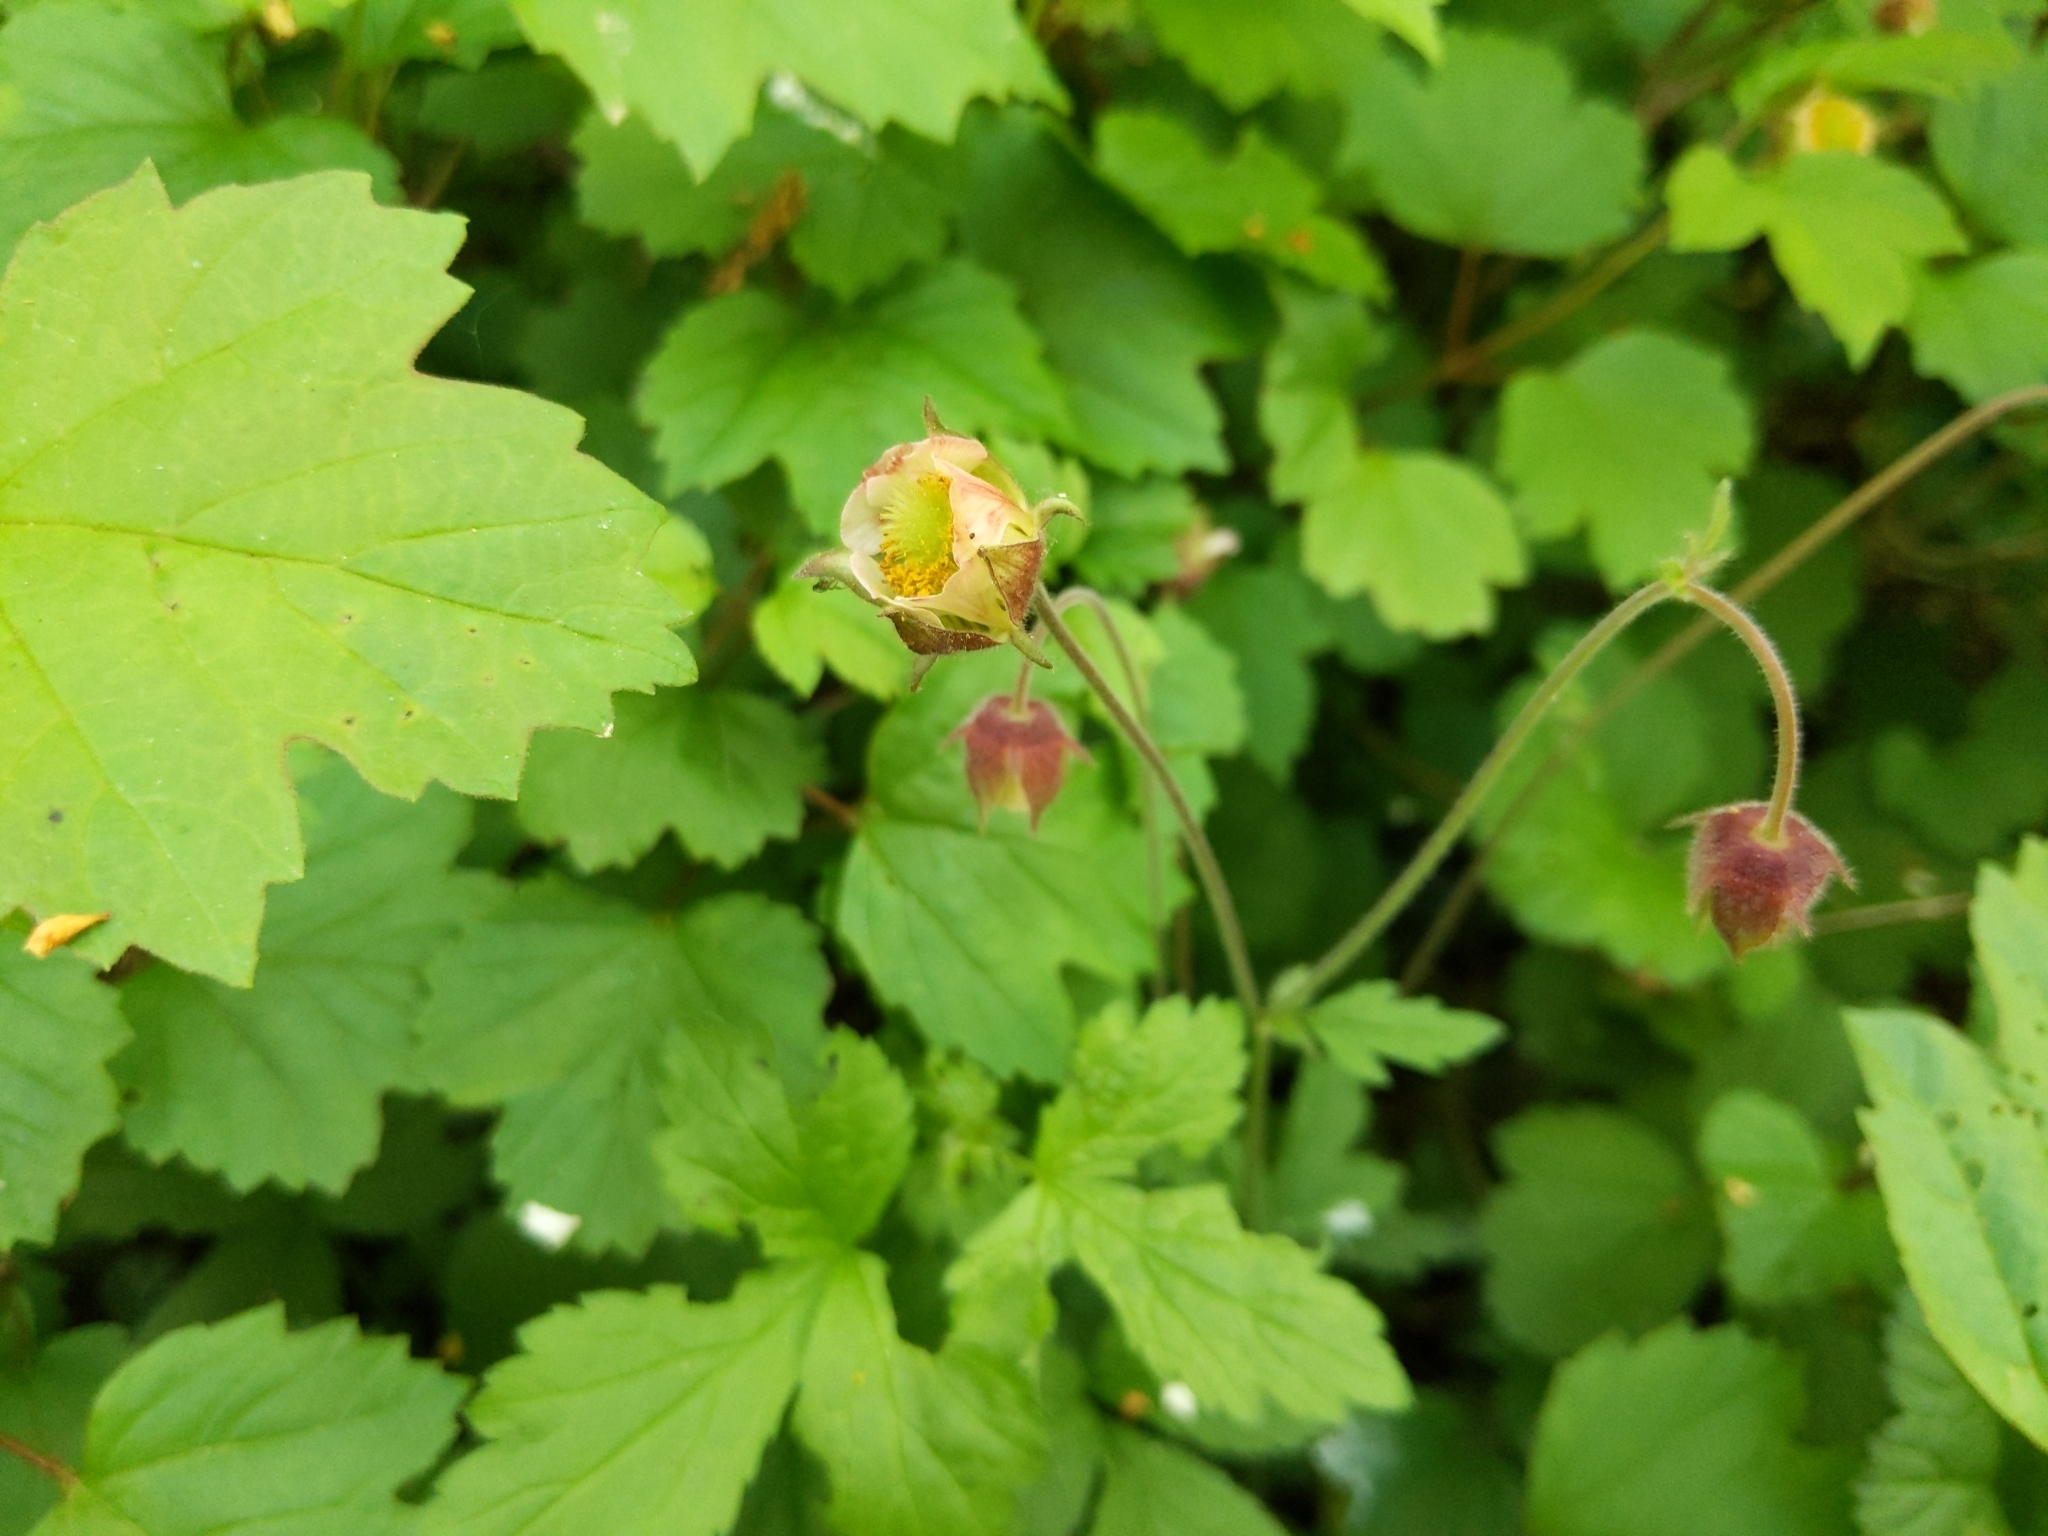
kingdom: Plantae
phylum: Tracheophyta
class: Magnoliopsida
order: Rosales
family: Rosaceae
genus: Geum
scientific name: Geum rivale
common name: Water avens
